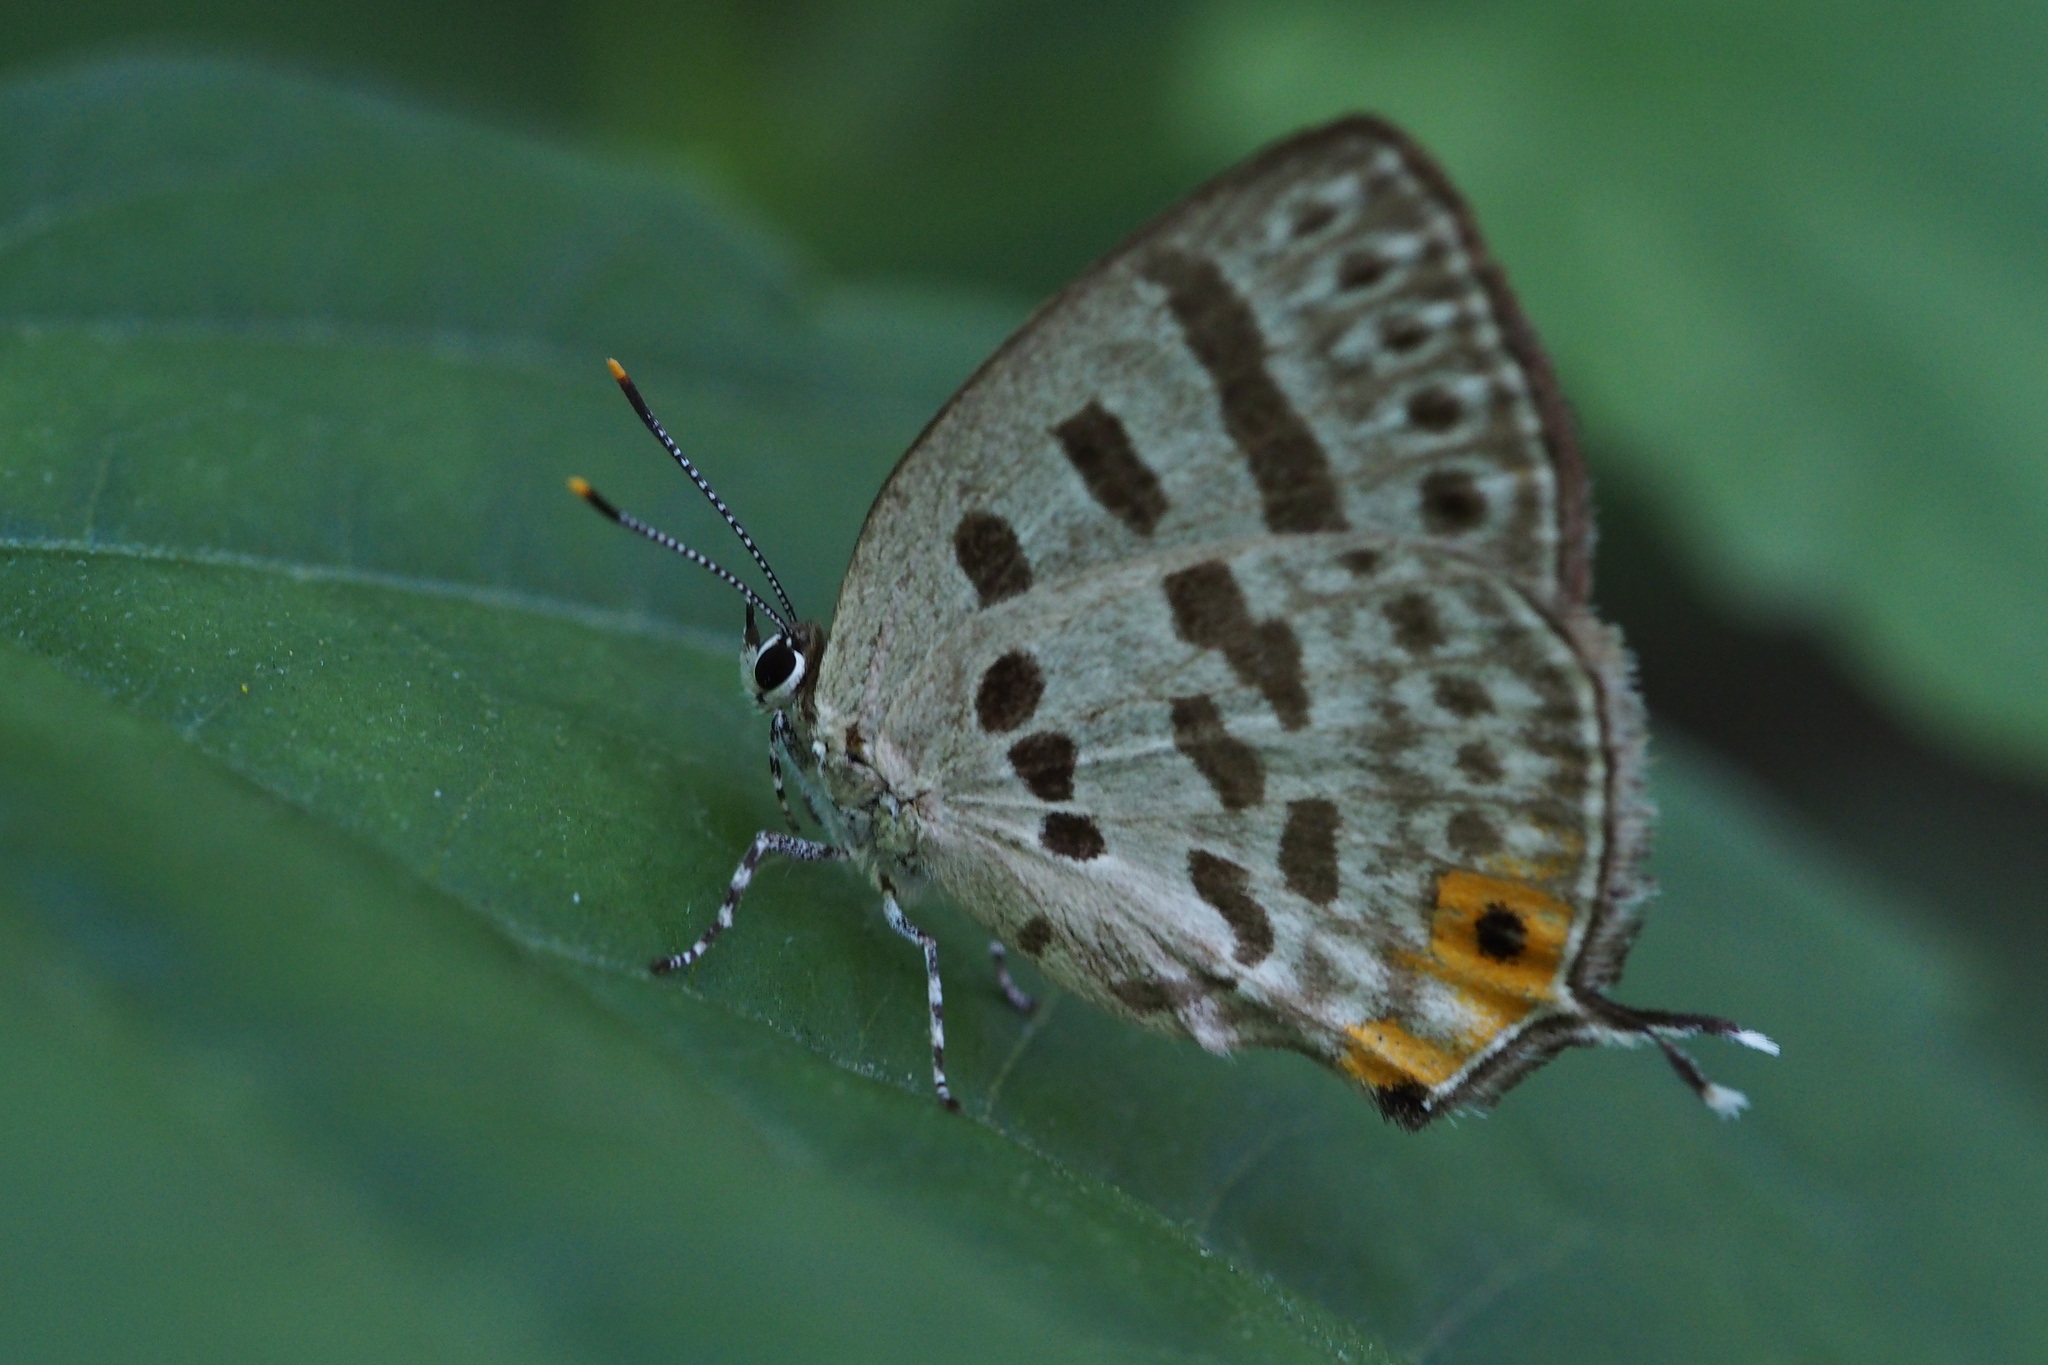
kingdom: Animalia
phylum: Arthropoda
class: Insecta
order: Lepidoptera
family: Lycaenidae
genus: Antigius
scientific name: Antigius butleri
